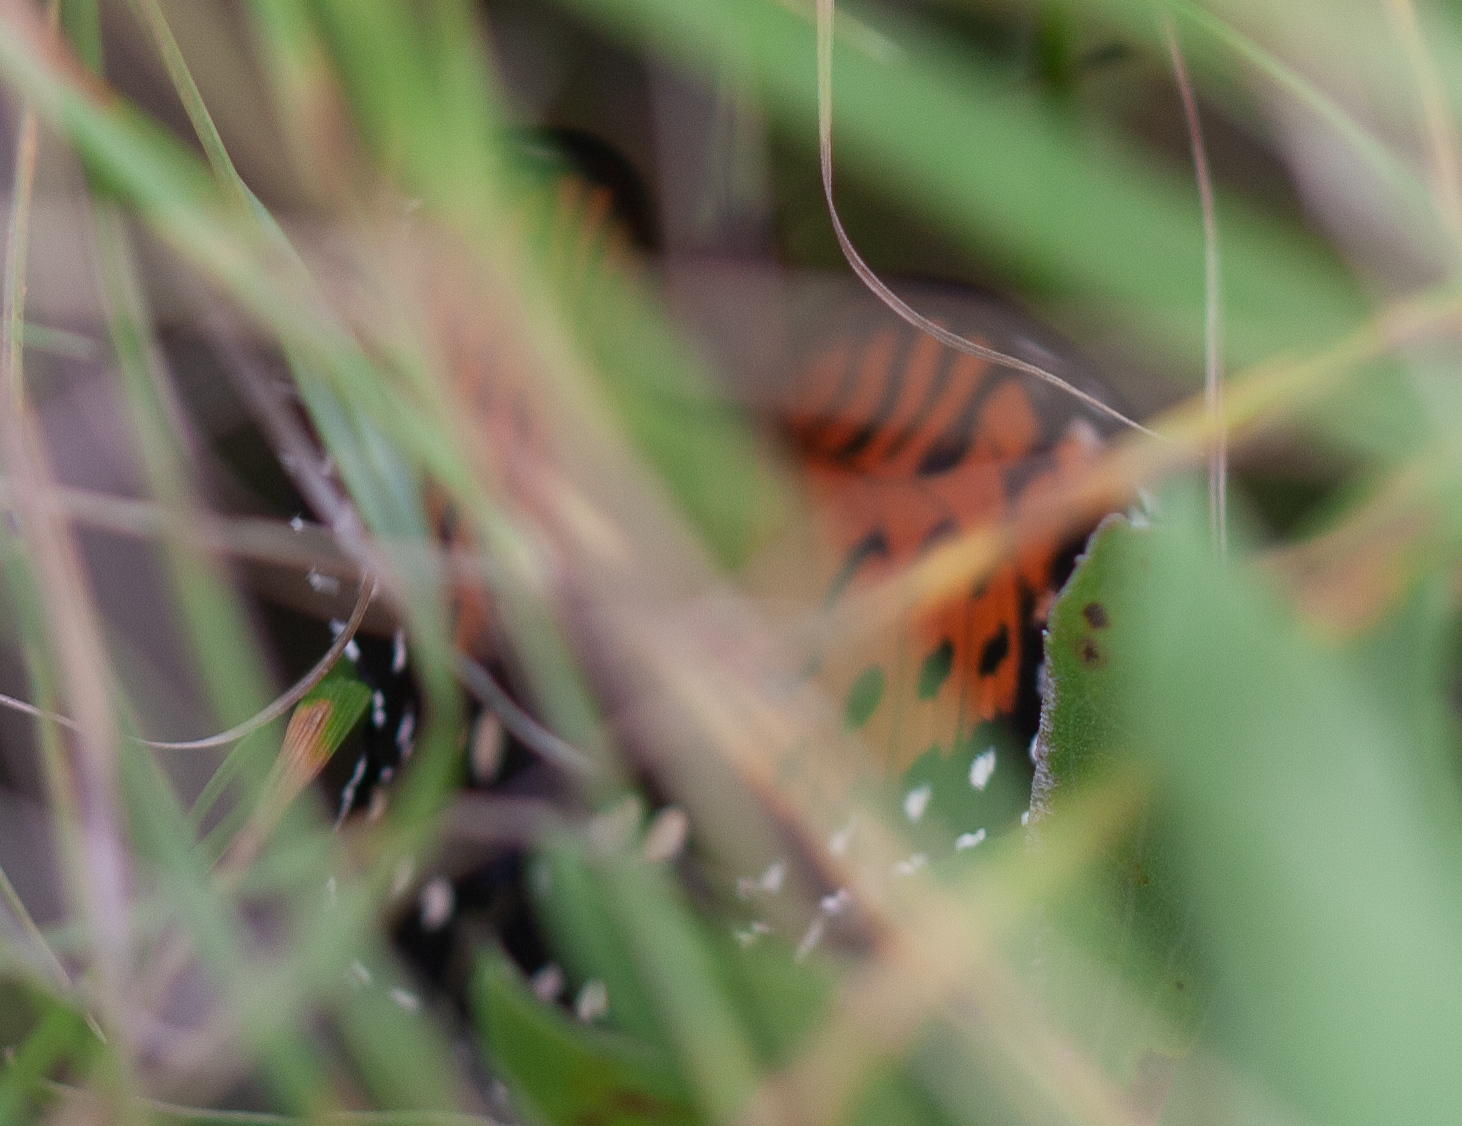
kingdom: Animalia
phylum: Arthropoda
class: Insecta
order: Lepidoptera
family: Nymphalidae
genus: Speyeria
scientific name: Speyeria idalia
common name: Regal fritillary
